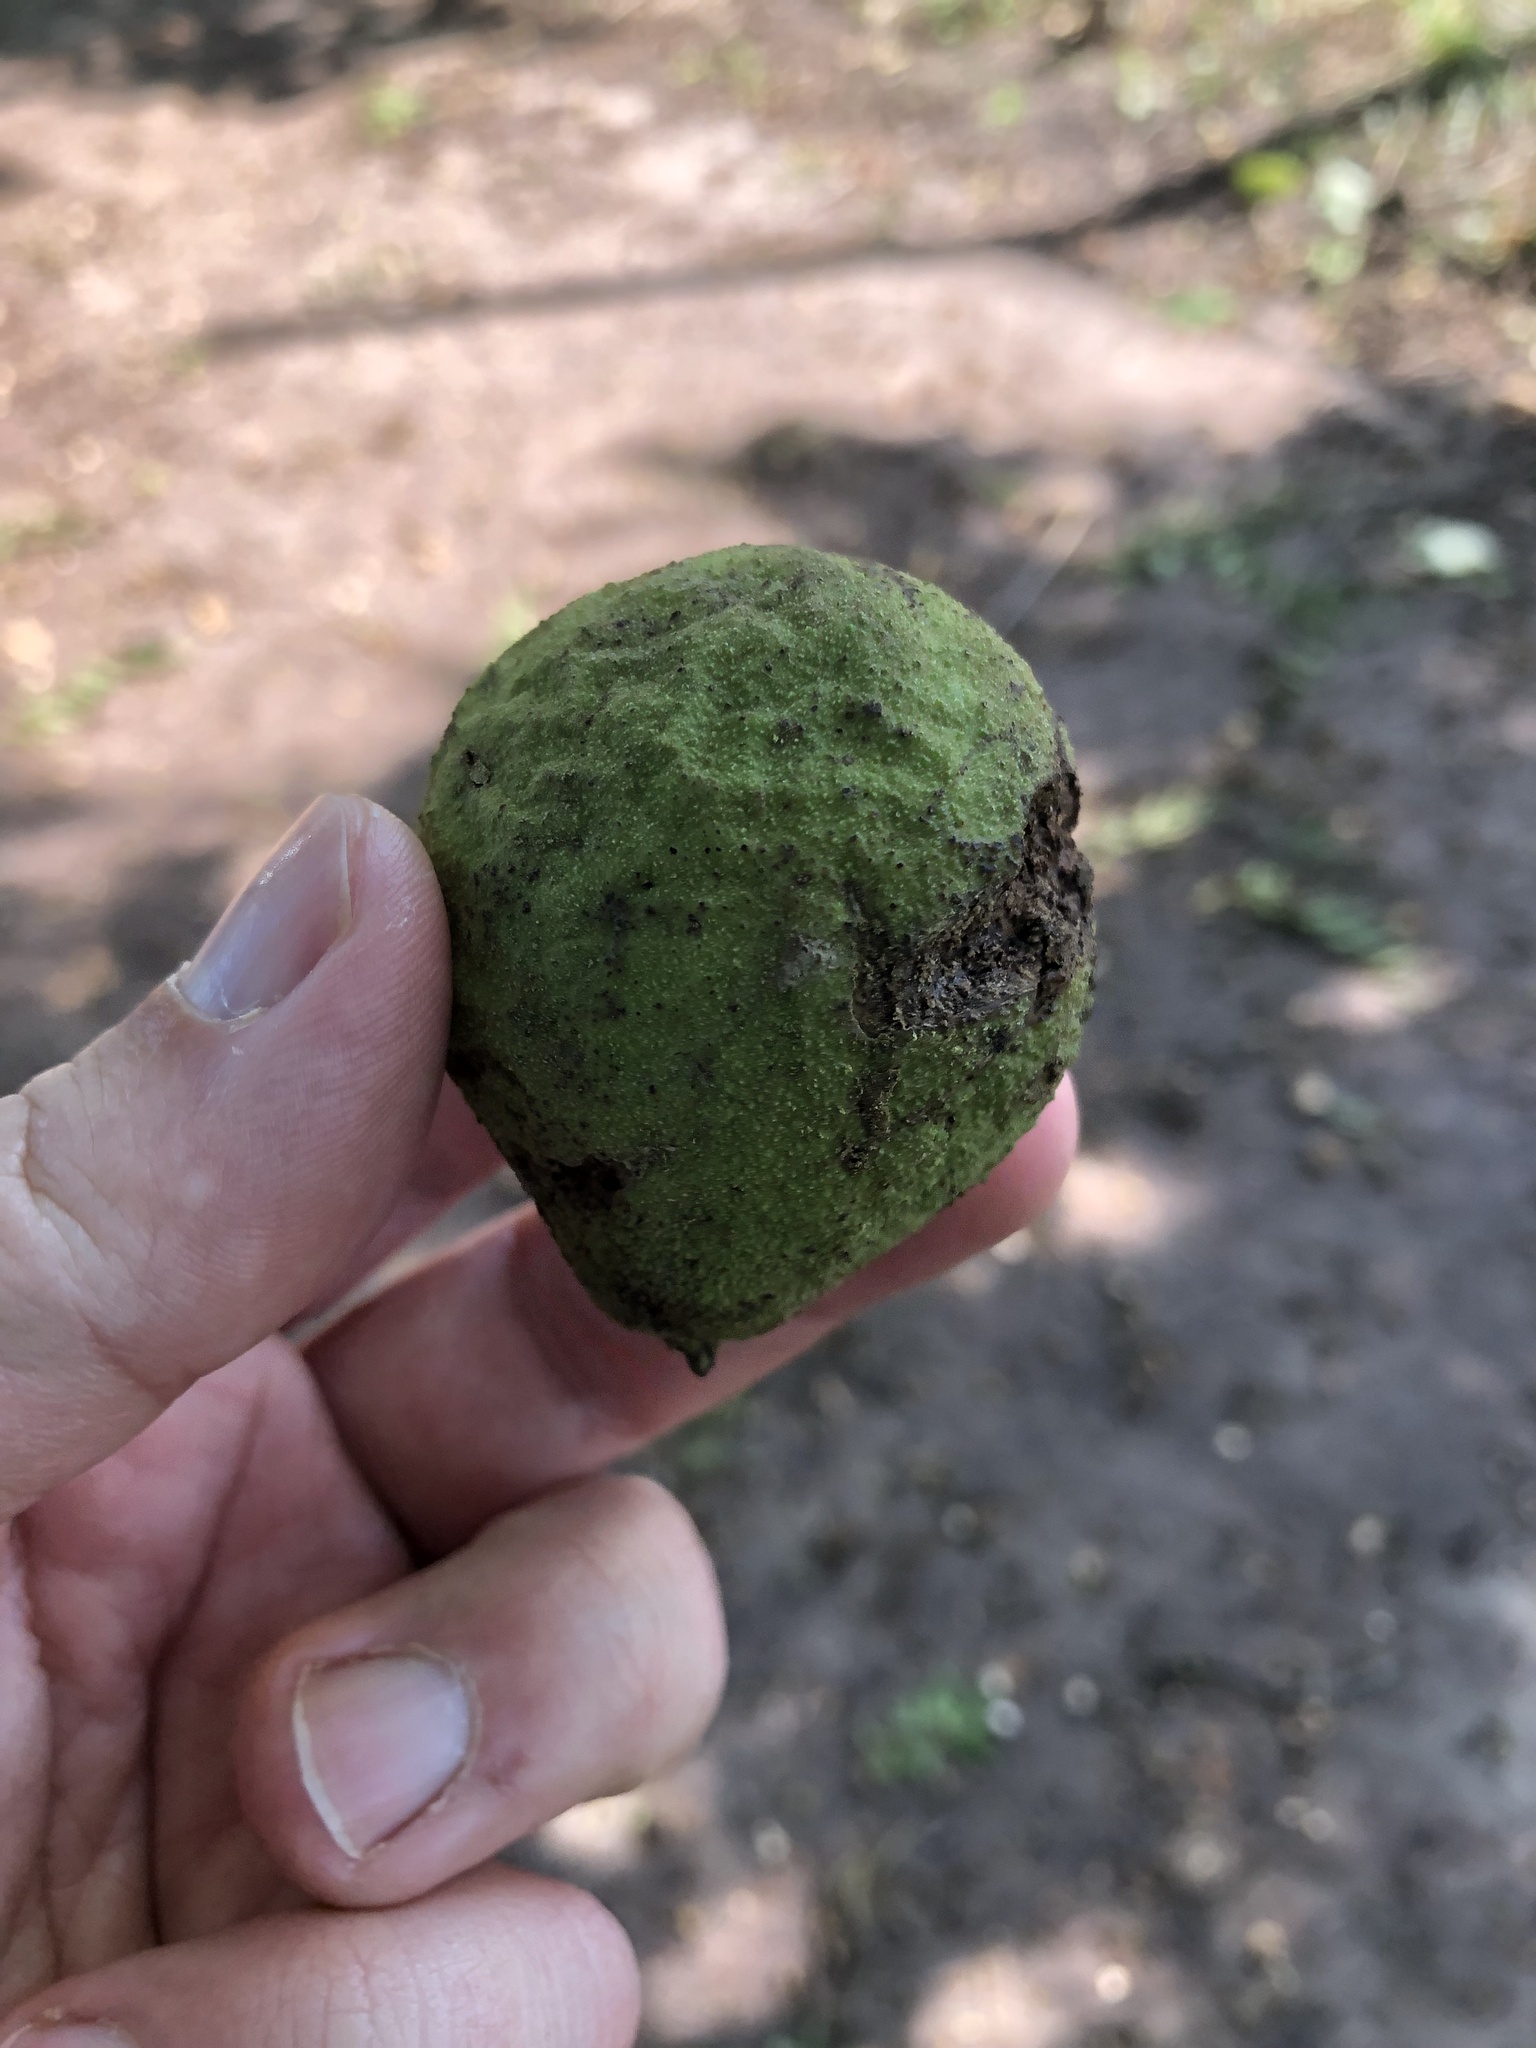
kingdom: Plantae
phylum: Tracheophyta
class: Magnoliopsida
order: Fagales
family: Juglandaceae
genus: Juglans
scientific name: Juglans nigra
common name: Black walnut
